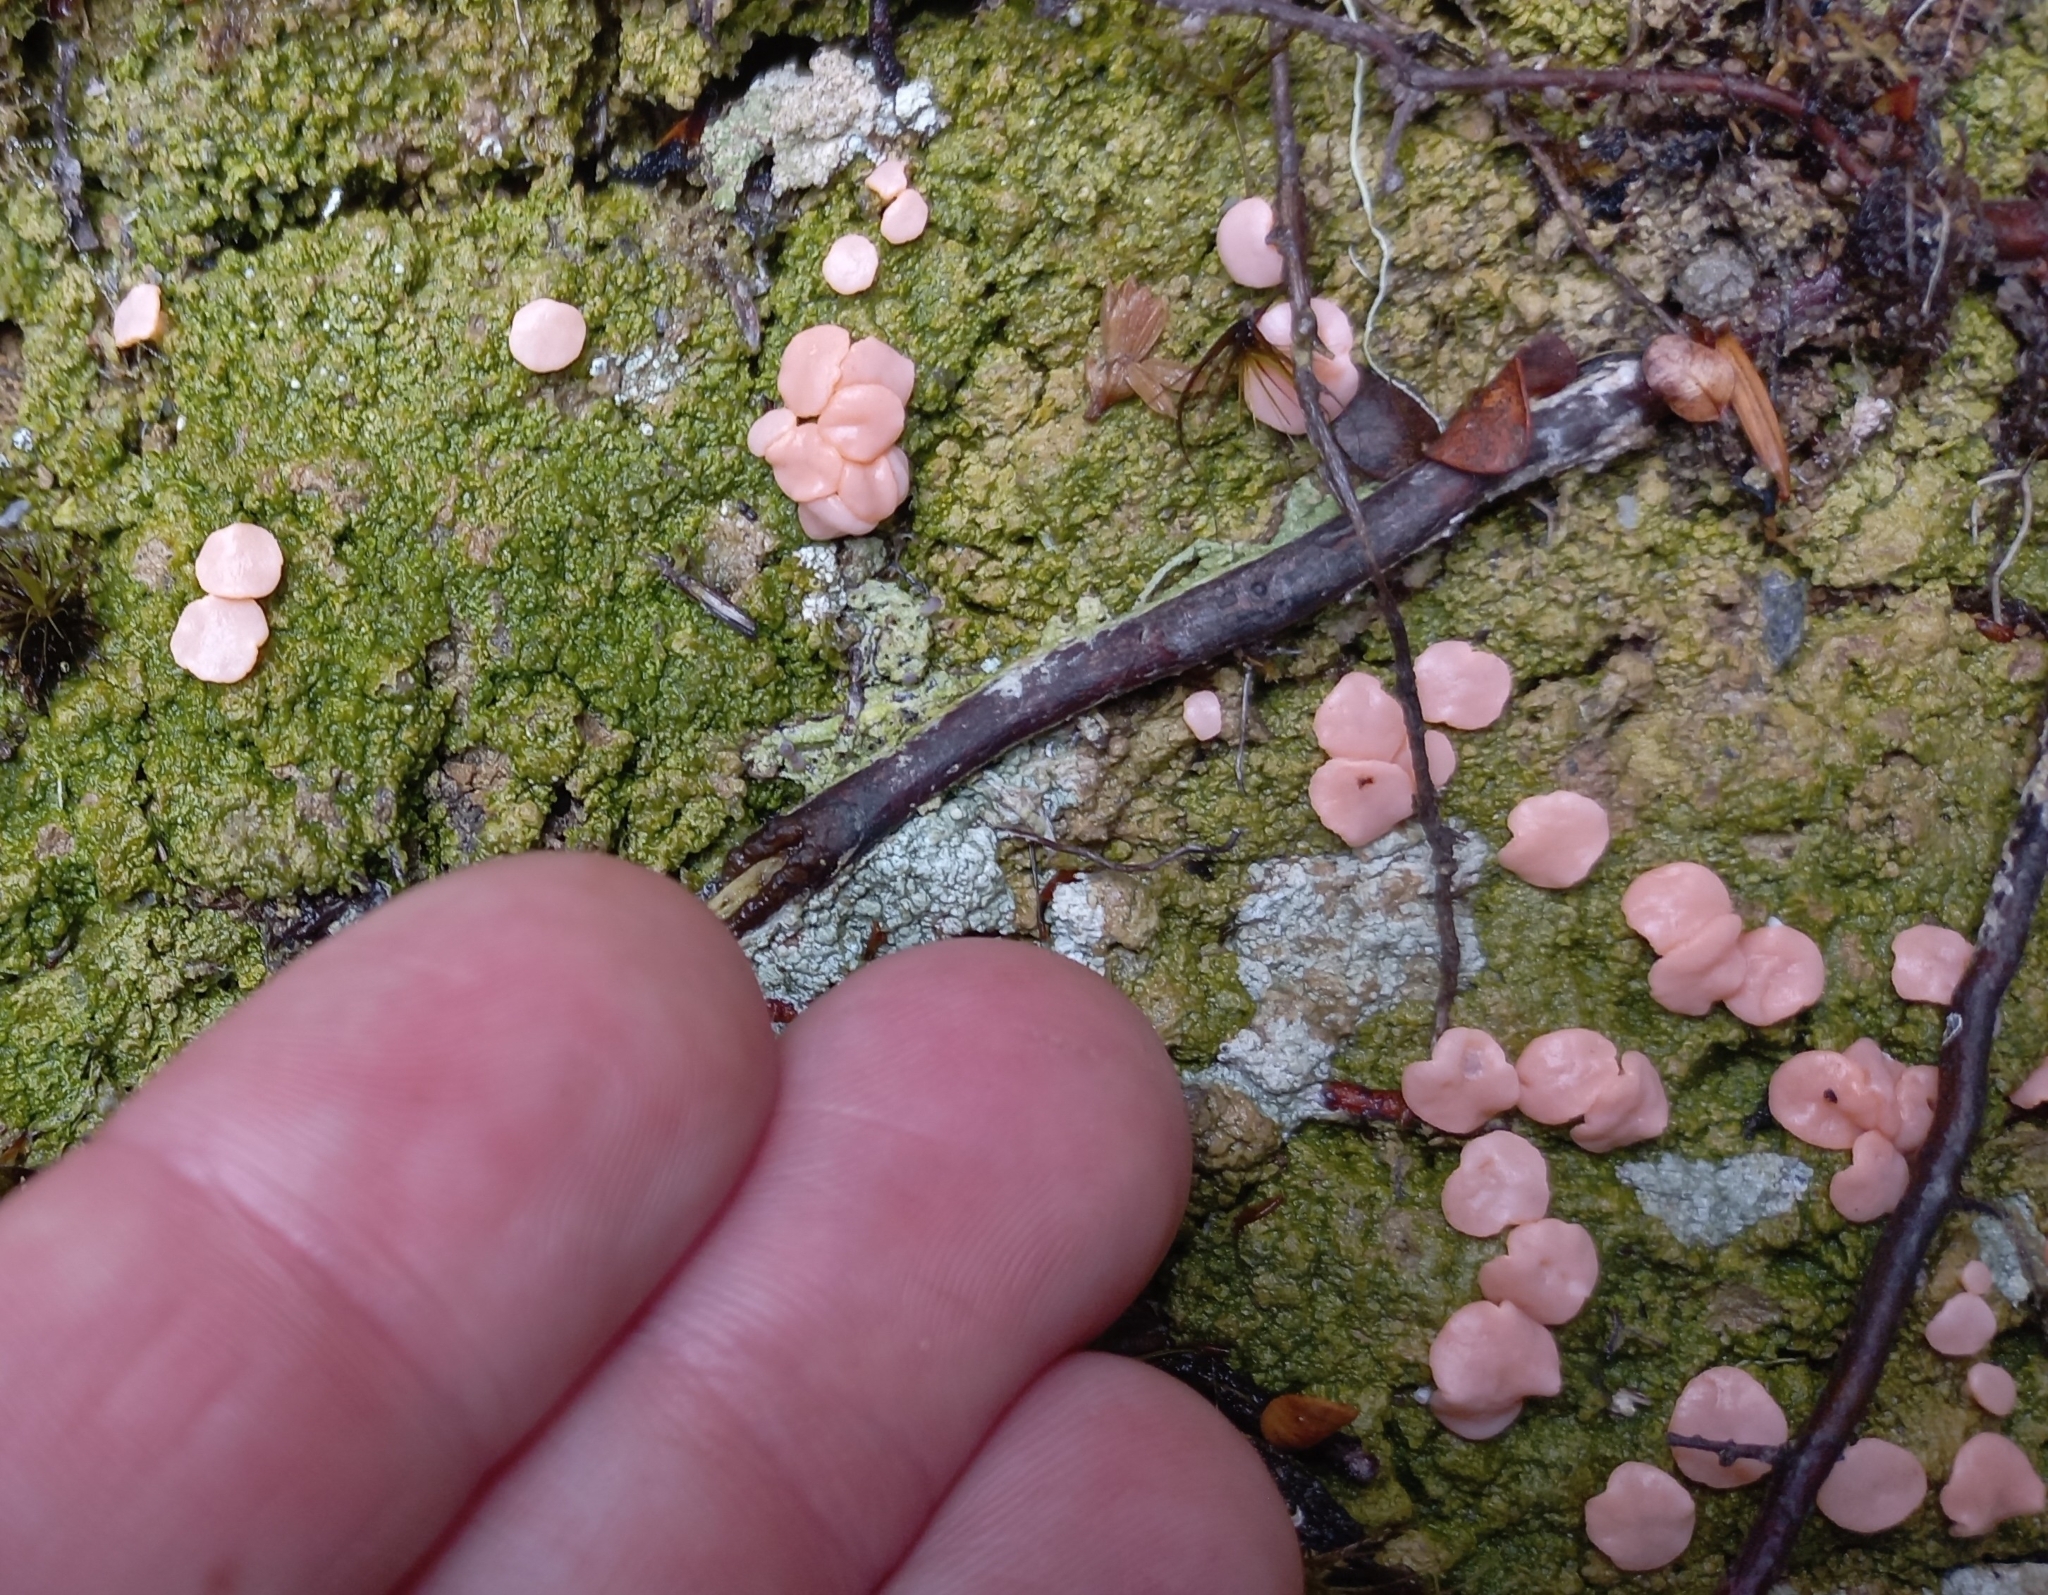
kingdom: Fungi
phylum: Ascomycota
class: Lecanoromycetes
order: Pertusariales
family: Icmadophilaceae
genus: Dibaeis
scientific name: Dibaeis absoluta
